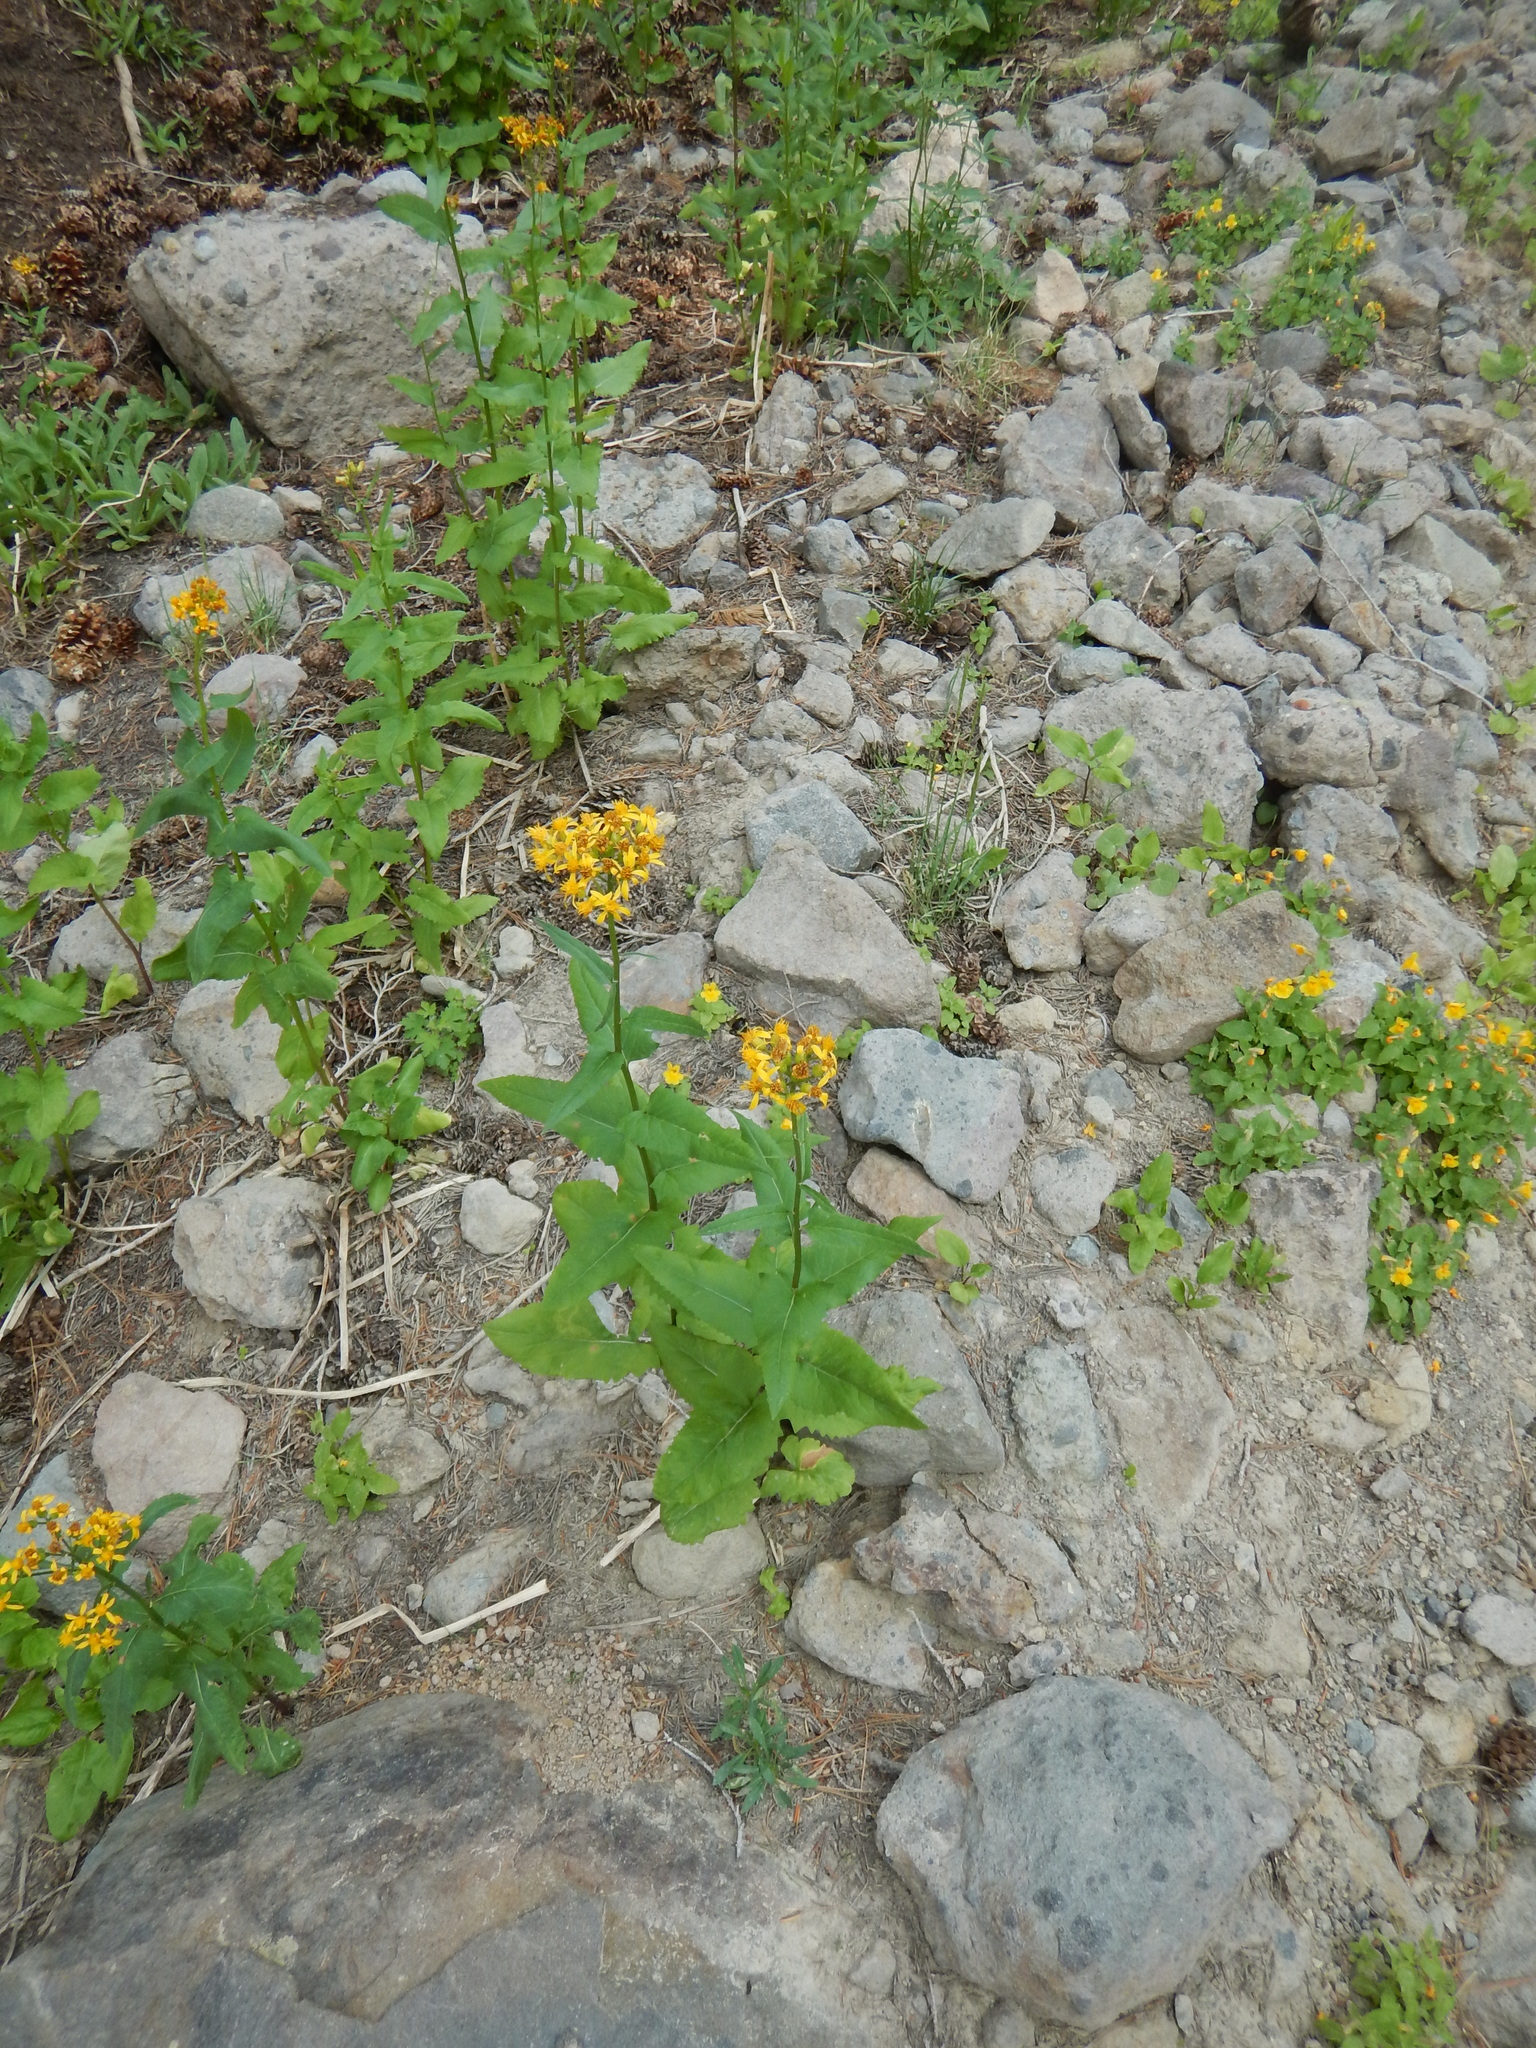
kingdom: Plantae
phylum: Tracheophyta
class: Magnoliopsida
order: Asterales
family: Asteraceae
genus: Senecio
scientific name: Senecio triangularis
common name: Arrowleaf butterweed
